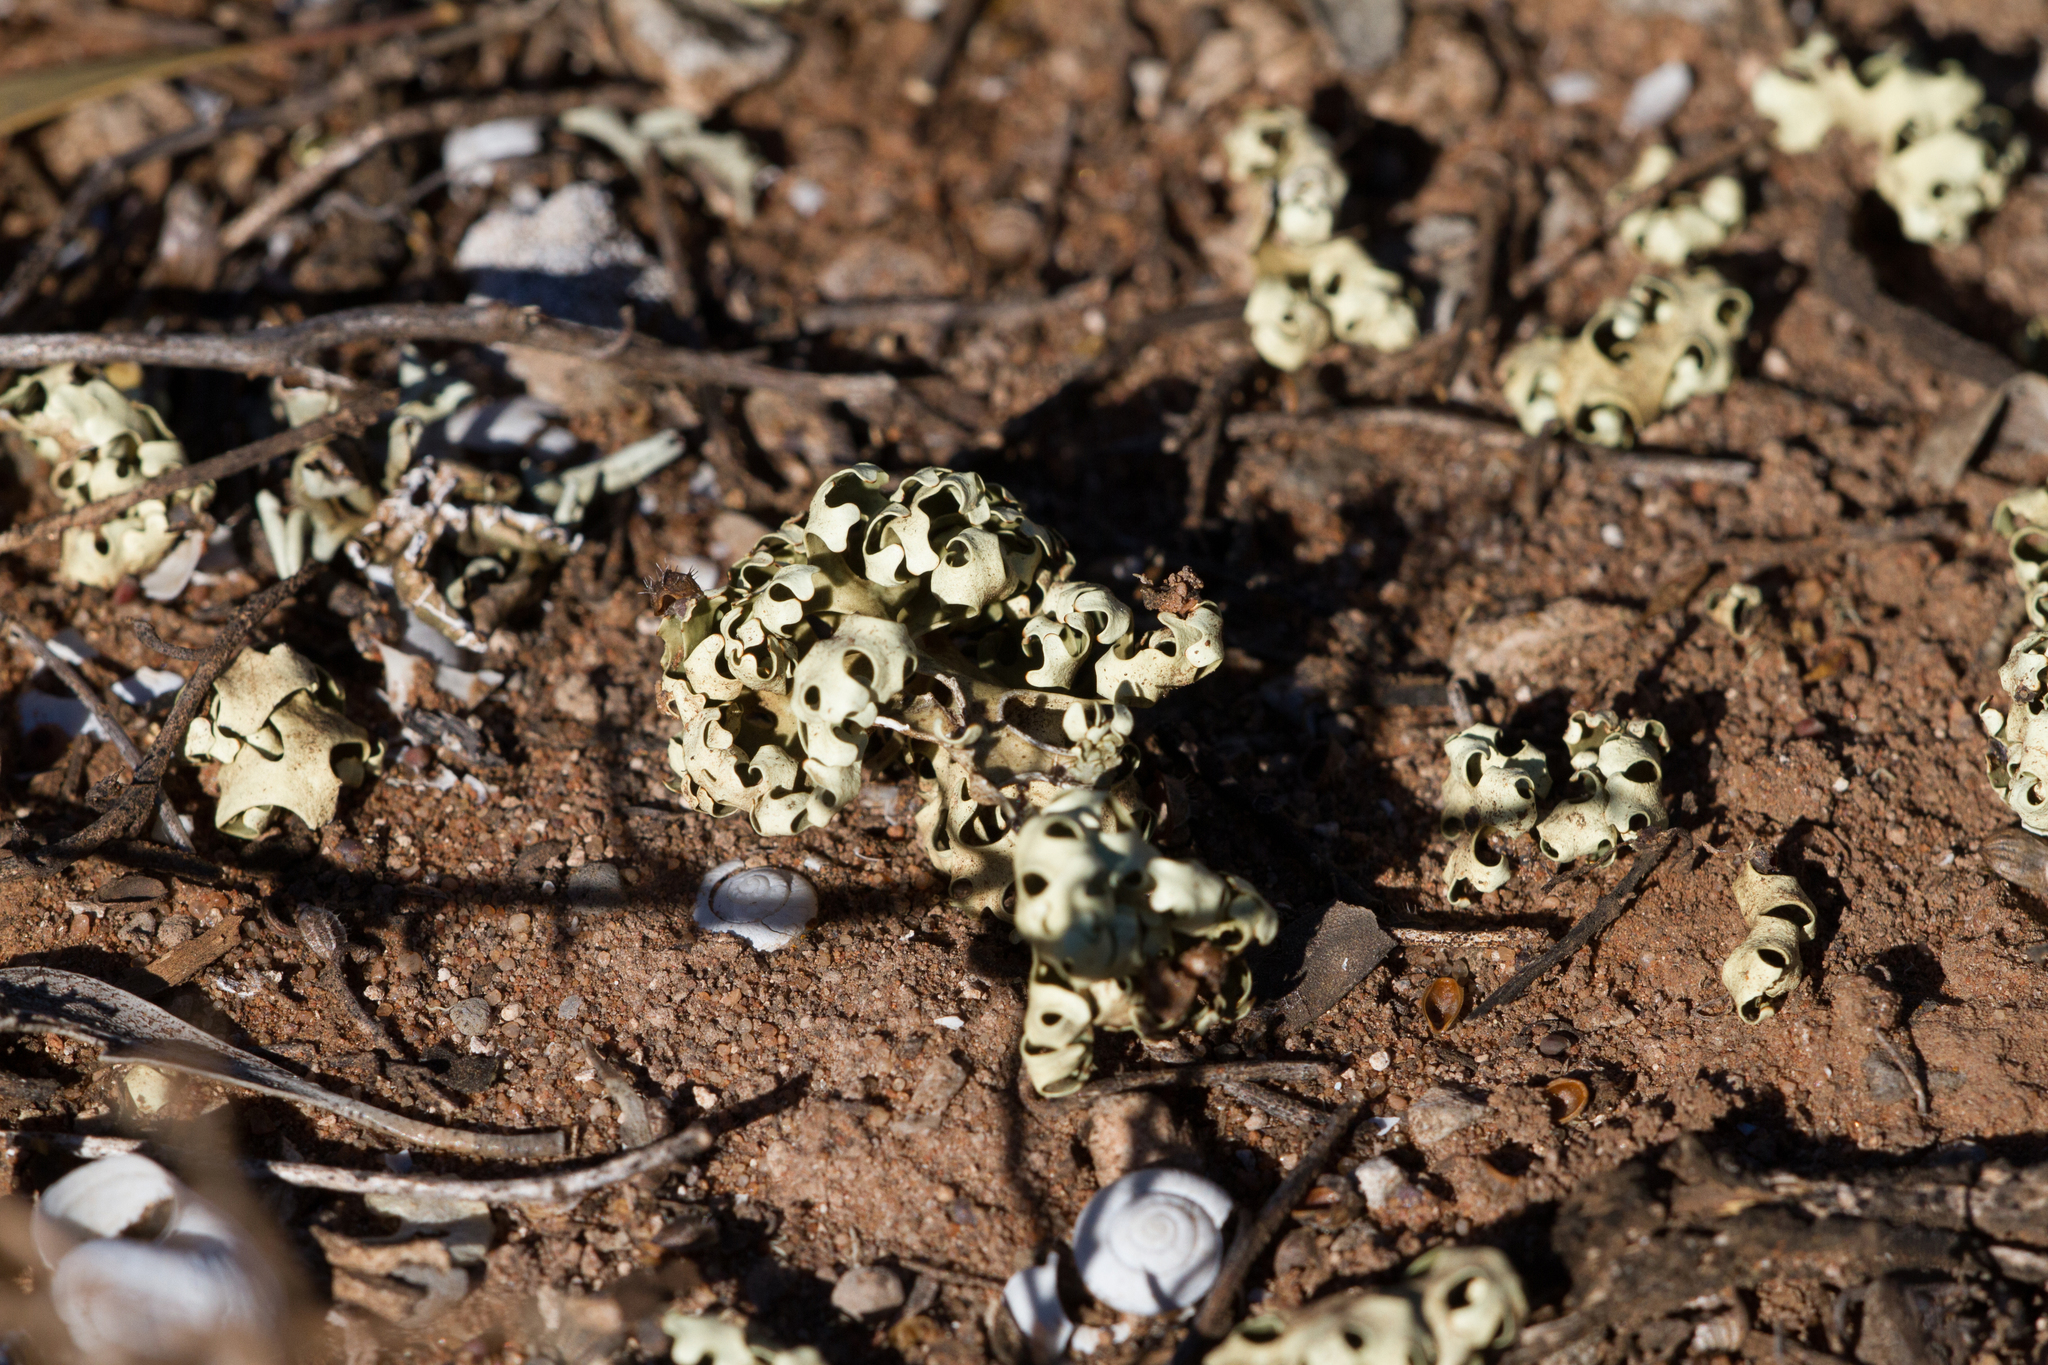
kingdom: Fungi
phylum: Ascomycota
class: Lecanoromycetes
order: Lecanorales
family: Parmeliaceae
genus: Xanthoparmelia
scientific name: Xanthoparmelia semiviridis
